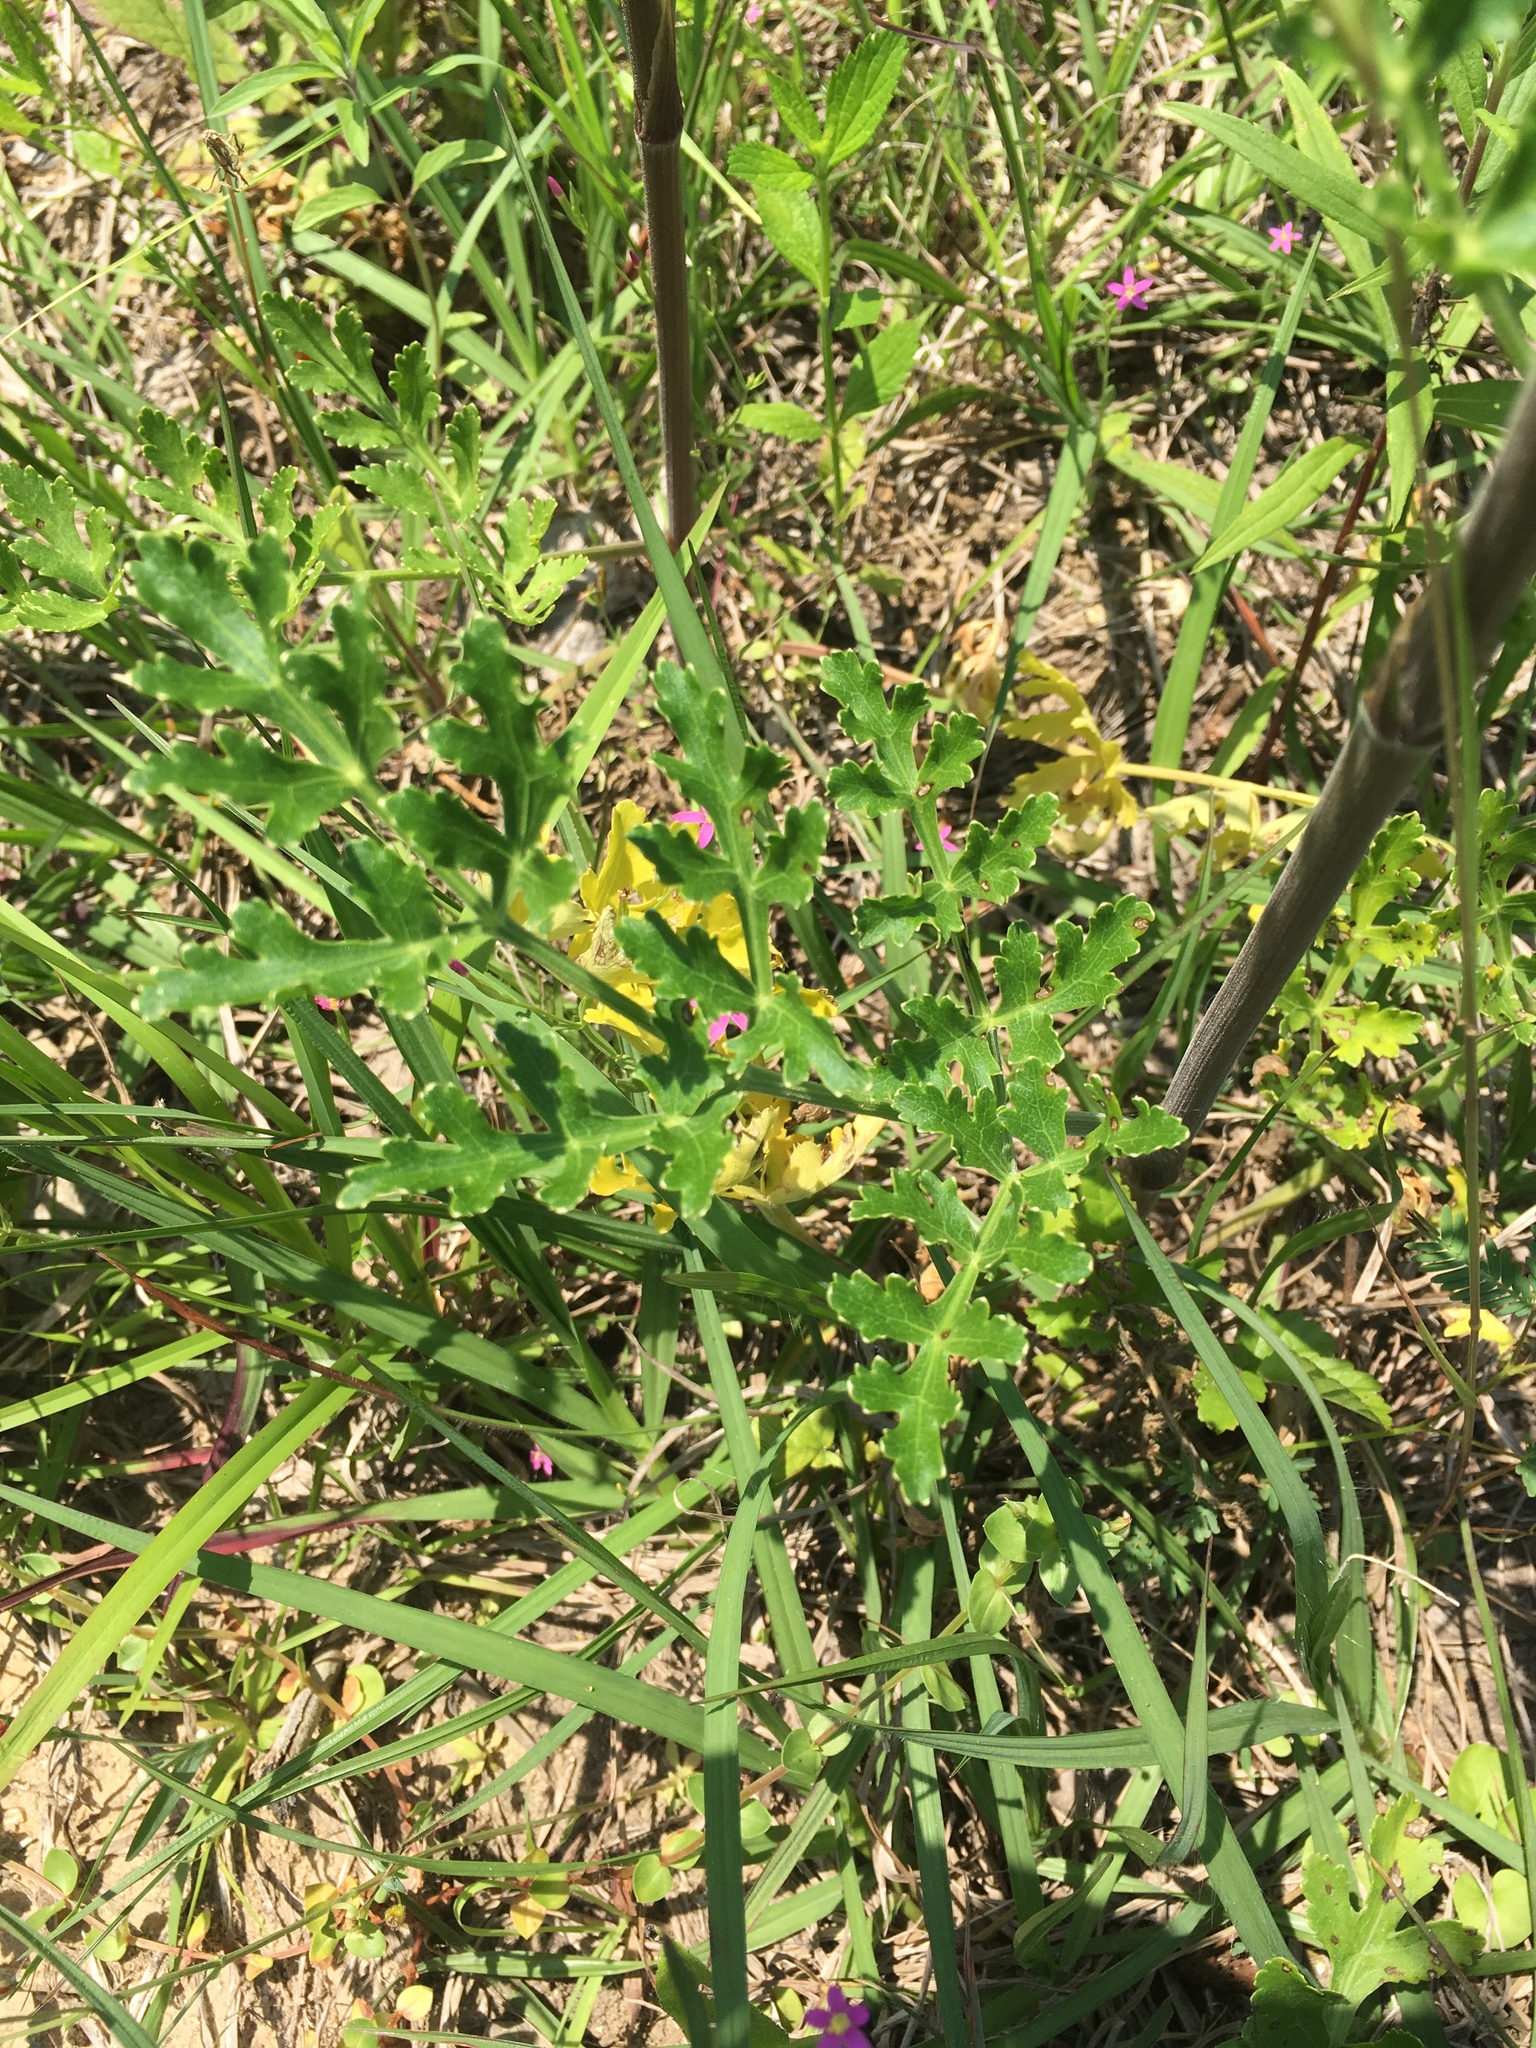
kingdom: Plantae
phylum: Tracheophyta
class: Magnoliopsida
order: Apiales
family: Apiaceae
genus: Polytaenia
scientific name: Polytaenia texana
